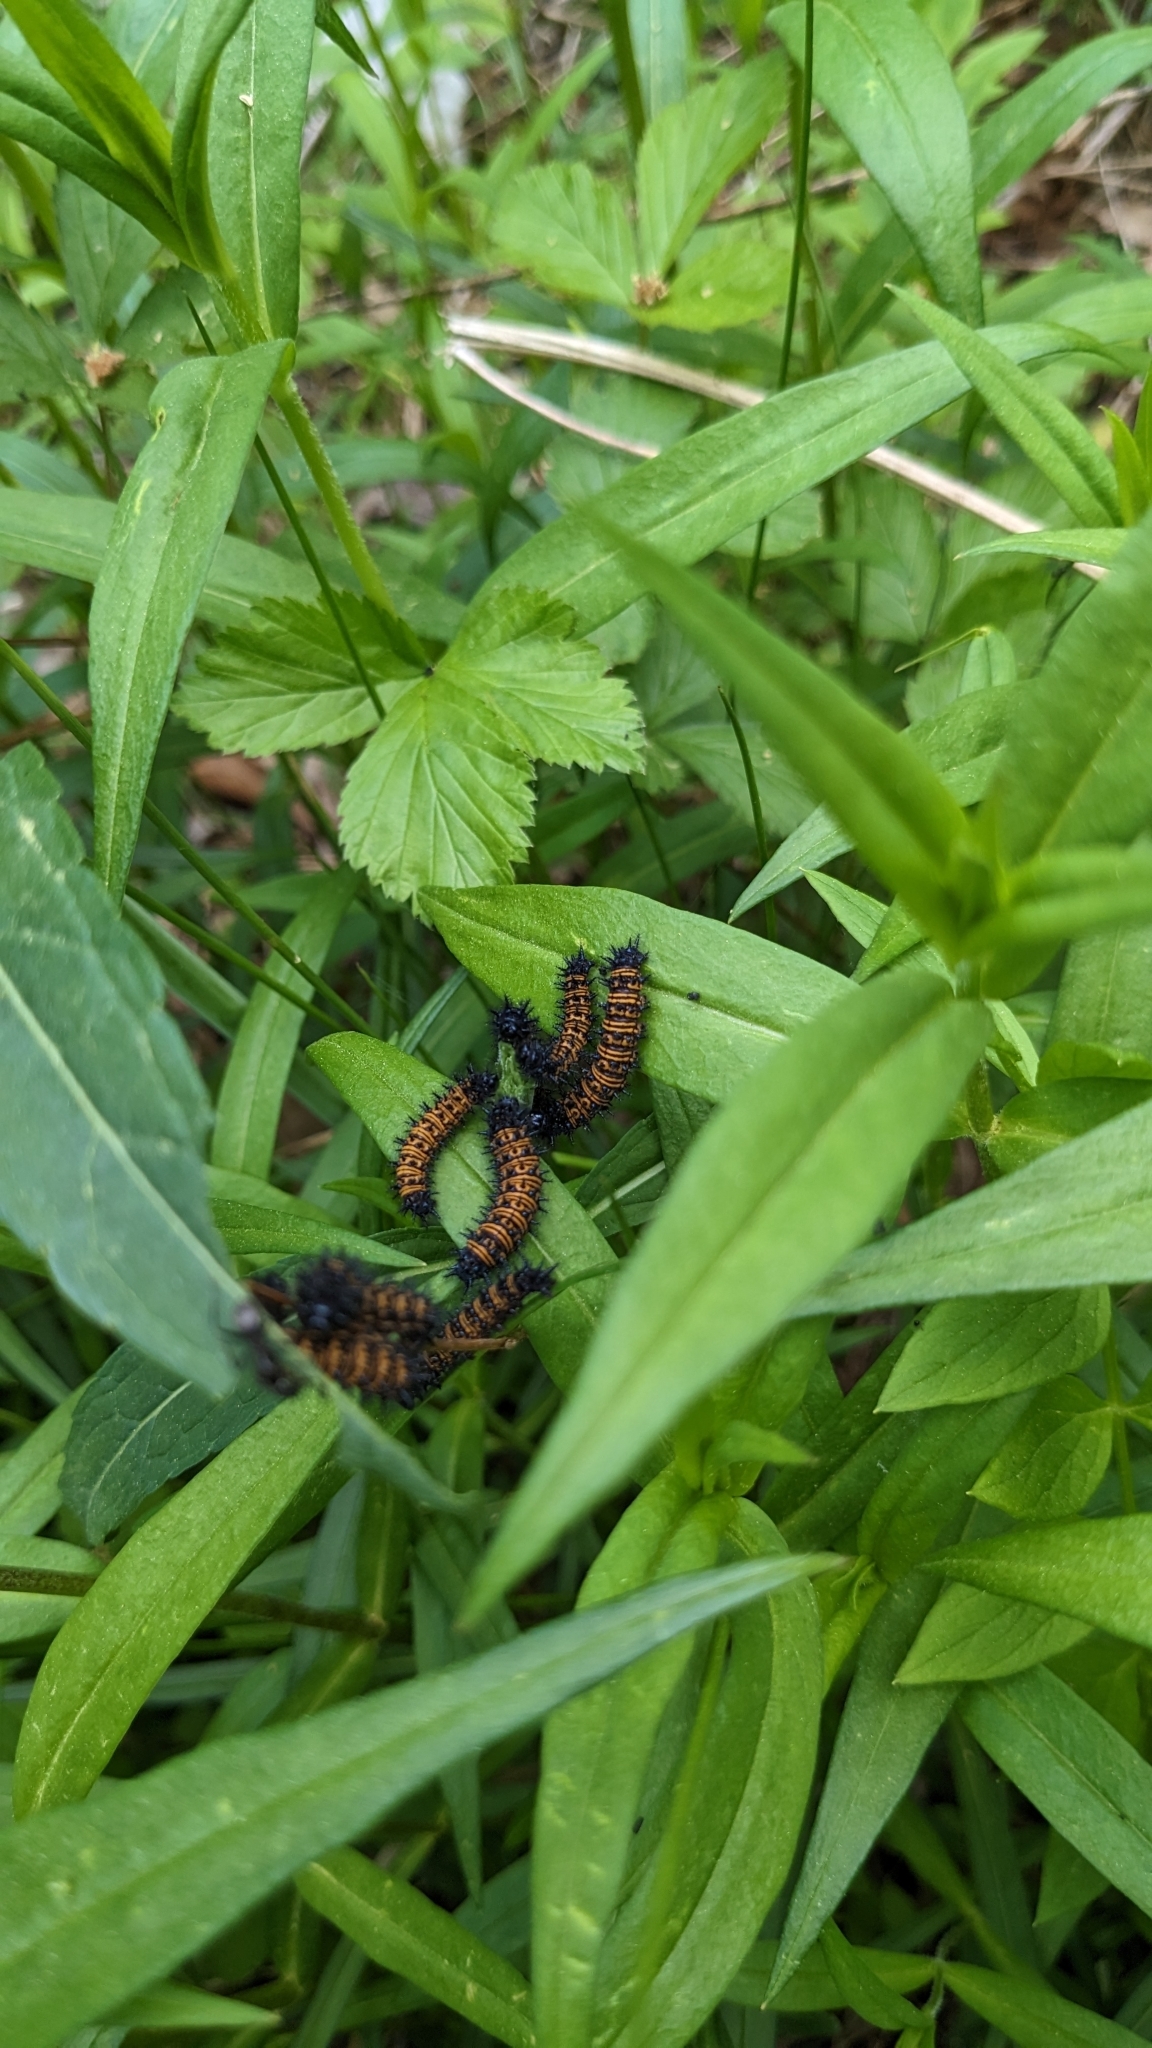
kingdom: Animalia
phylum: Arthropoda
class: Insecta
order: Lepidoptera
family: Nymphalidae
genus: Euphydryas
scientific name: Euphydryas phaeton
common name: Baltimore checkerspot
